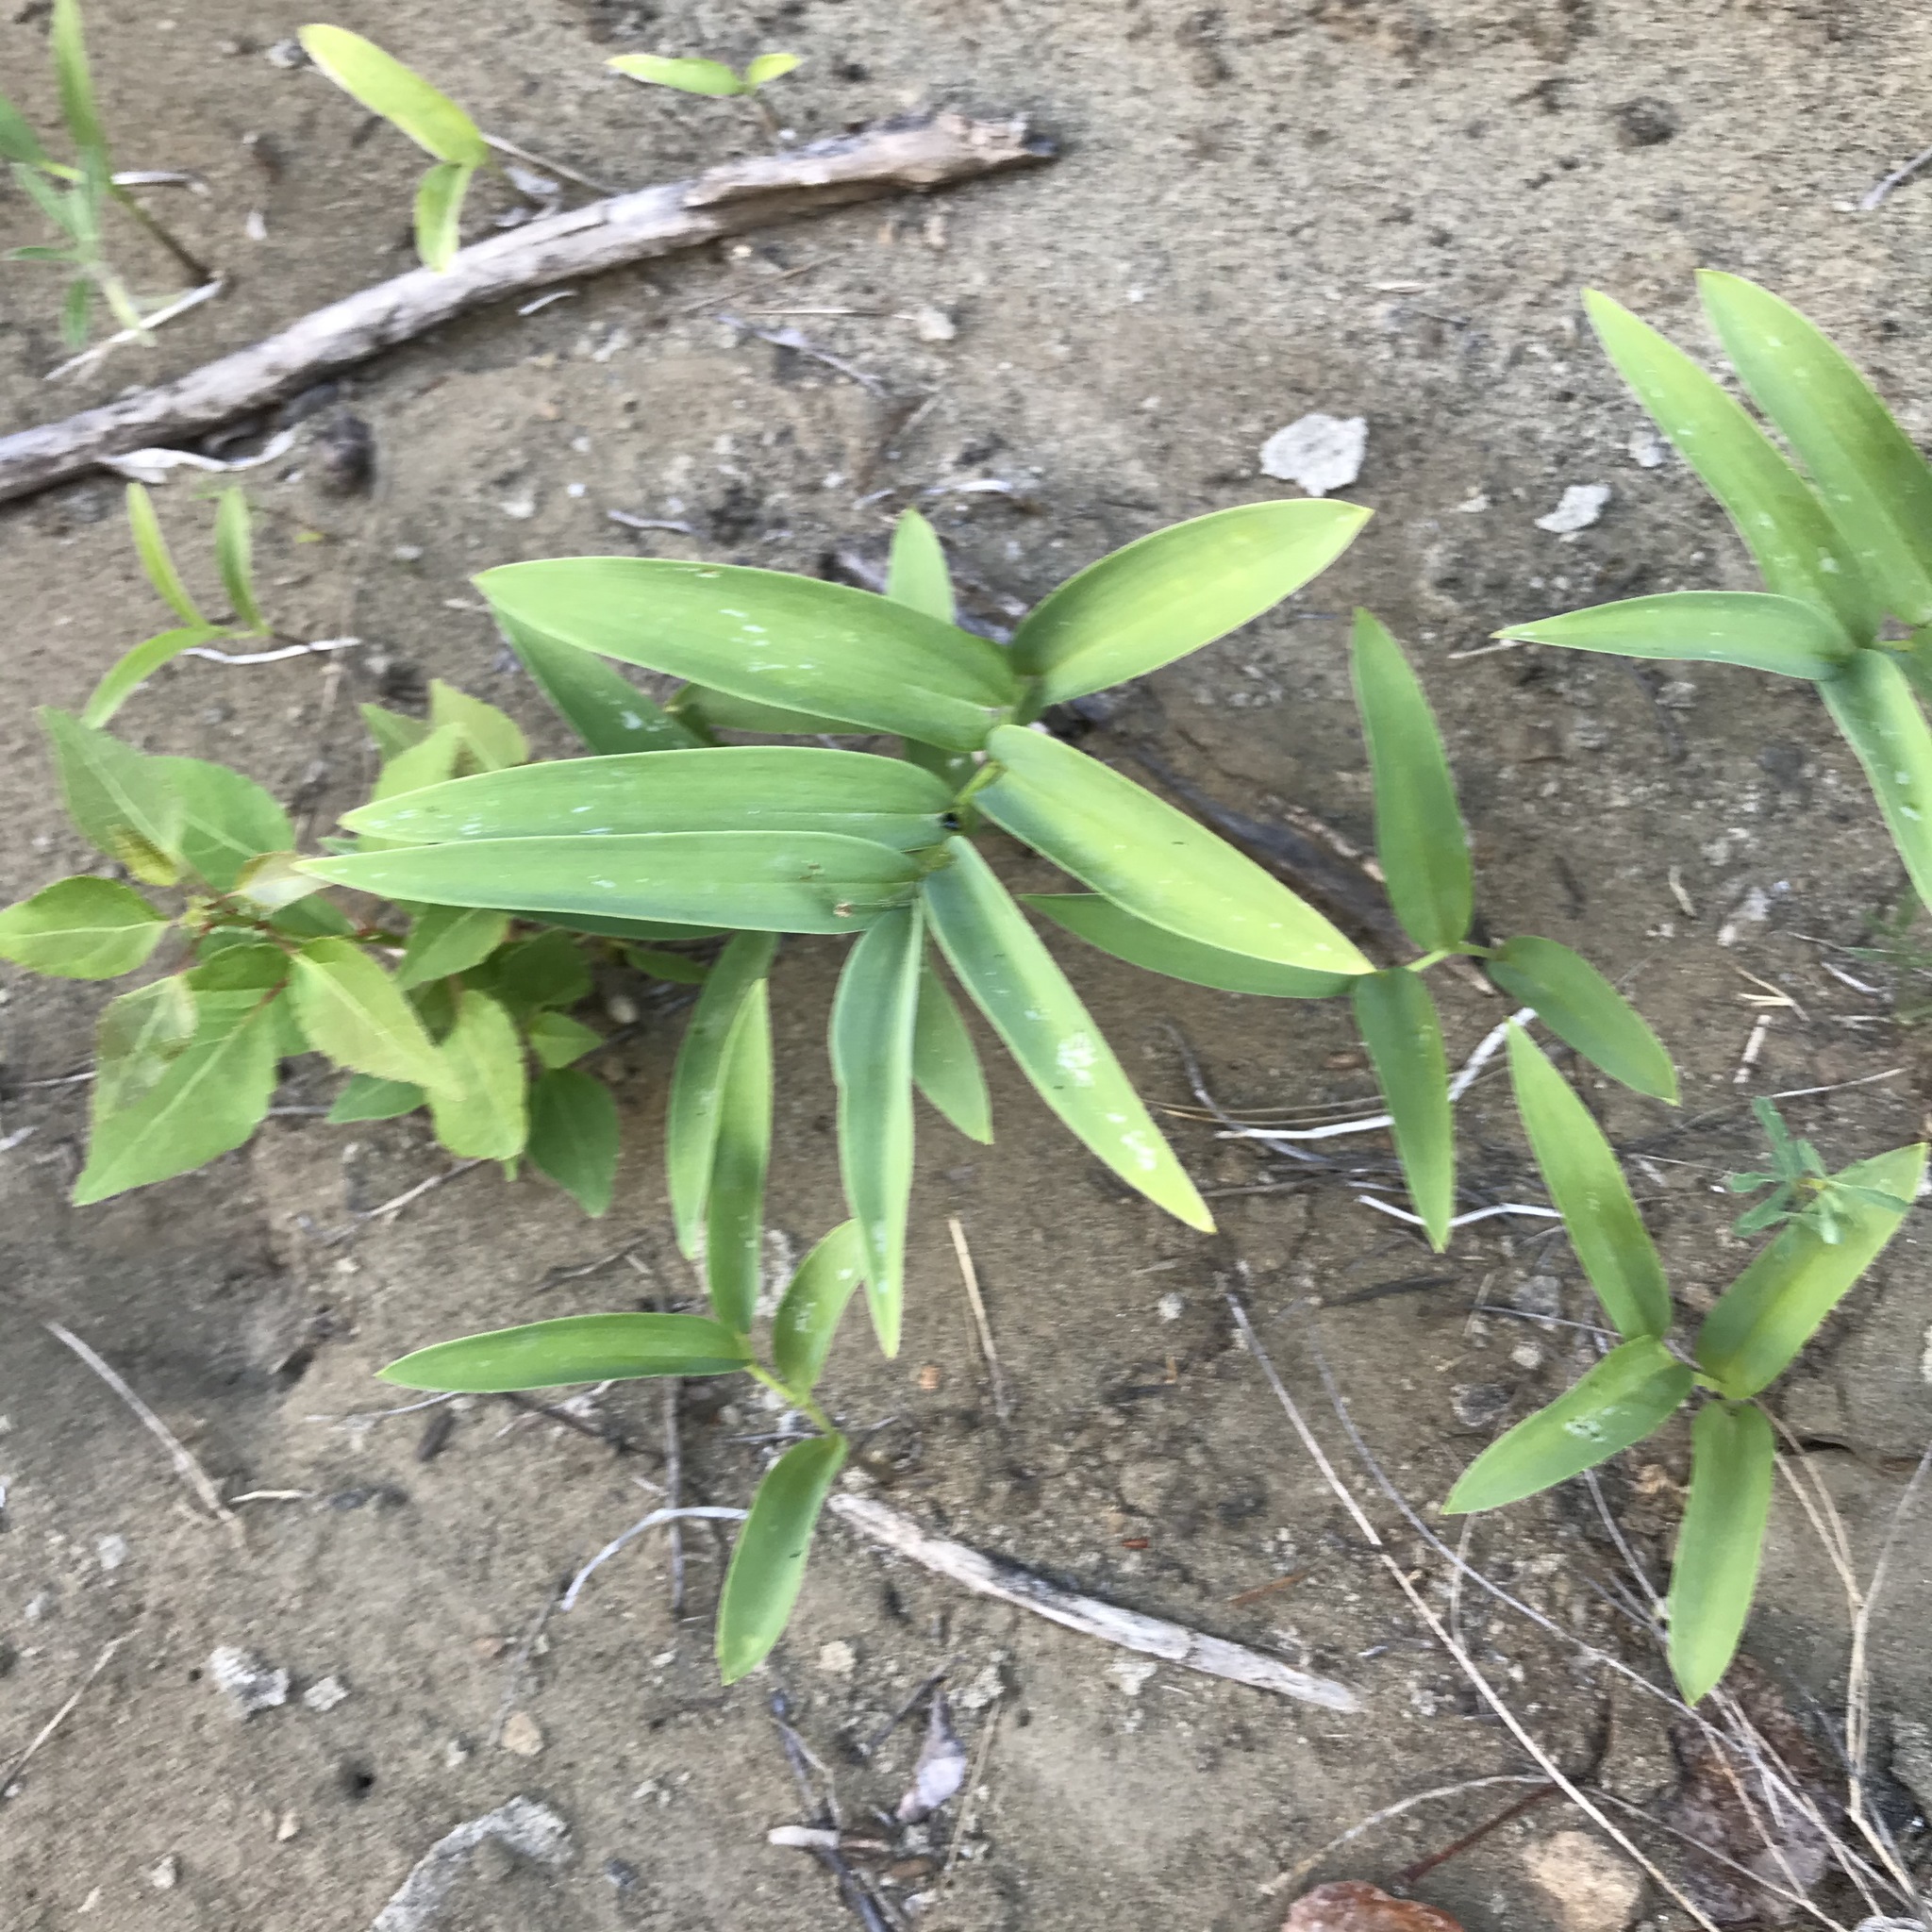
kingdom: Plantae
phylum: Tracheophyta
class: Liliopsida
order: Asparagales
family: Asparagaceae
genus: Maianthemum
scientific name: Maianthemum stellatum
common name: Little false solomon's seal
